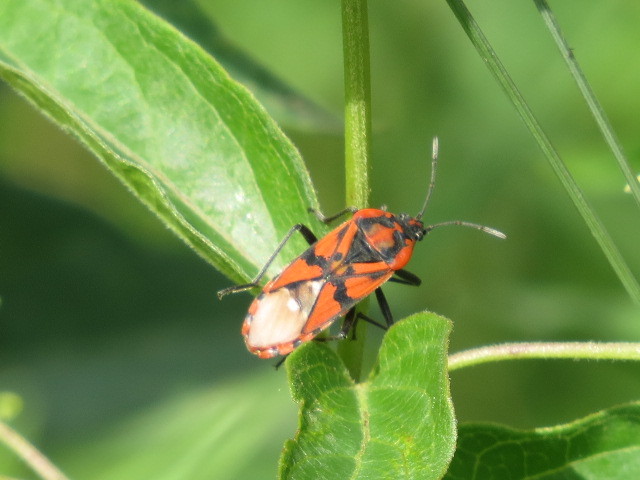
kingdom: Animalia
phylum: Arthropoda
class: Insecta
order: Hemiptera
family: Lygaeidae
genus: Spilostethus
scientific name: Spilostethus pandurus
